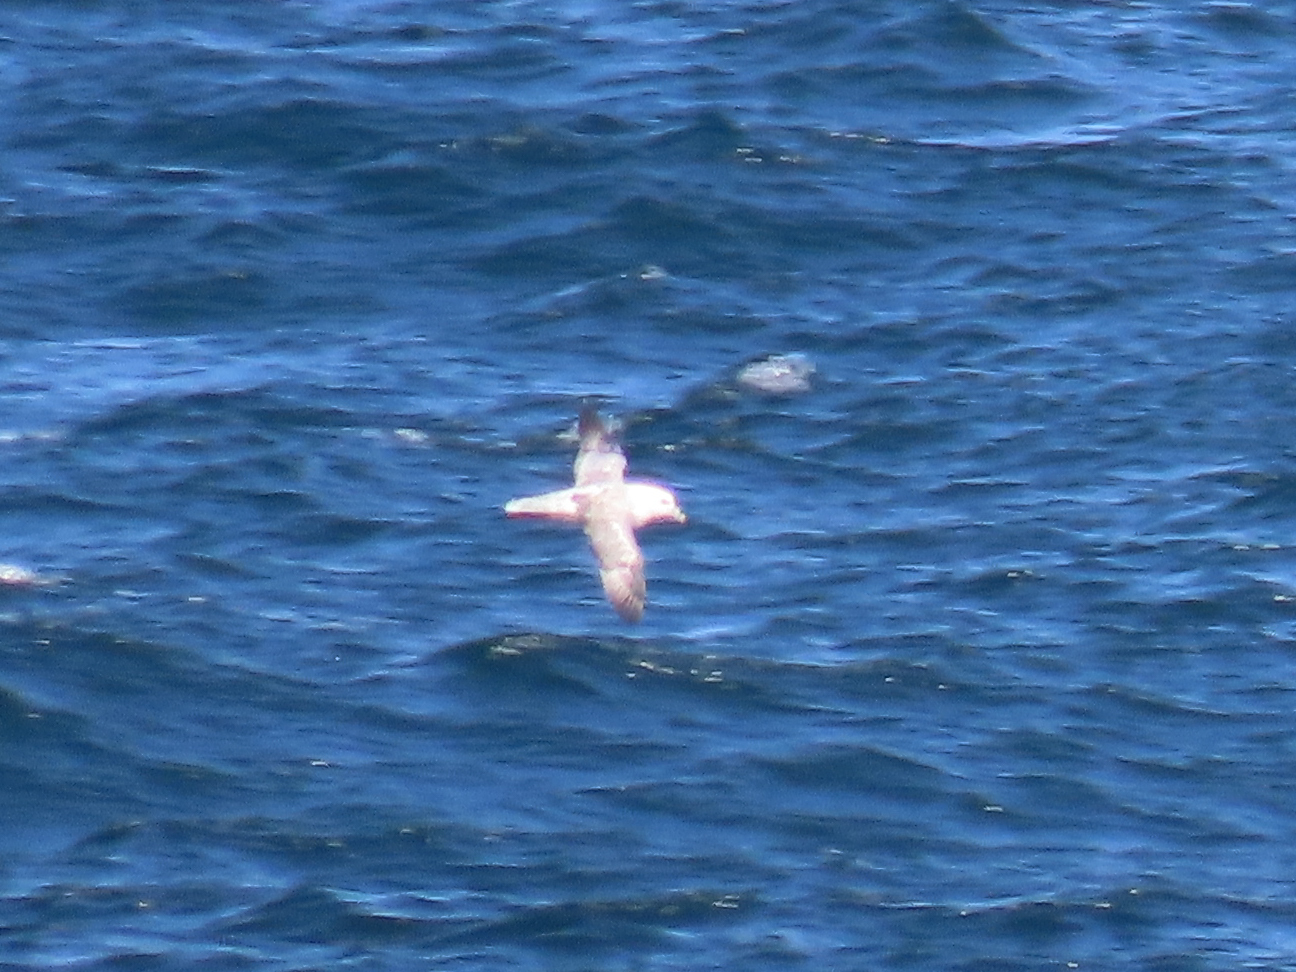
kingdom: Animalia
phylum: Chordata
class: Aves
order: Procellariiformes
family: Procellariidae
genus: Fulmarus
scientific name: Fulmarus glacialis
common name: Northern fulmar
